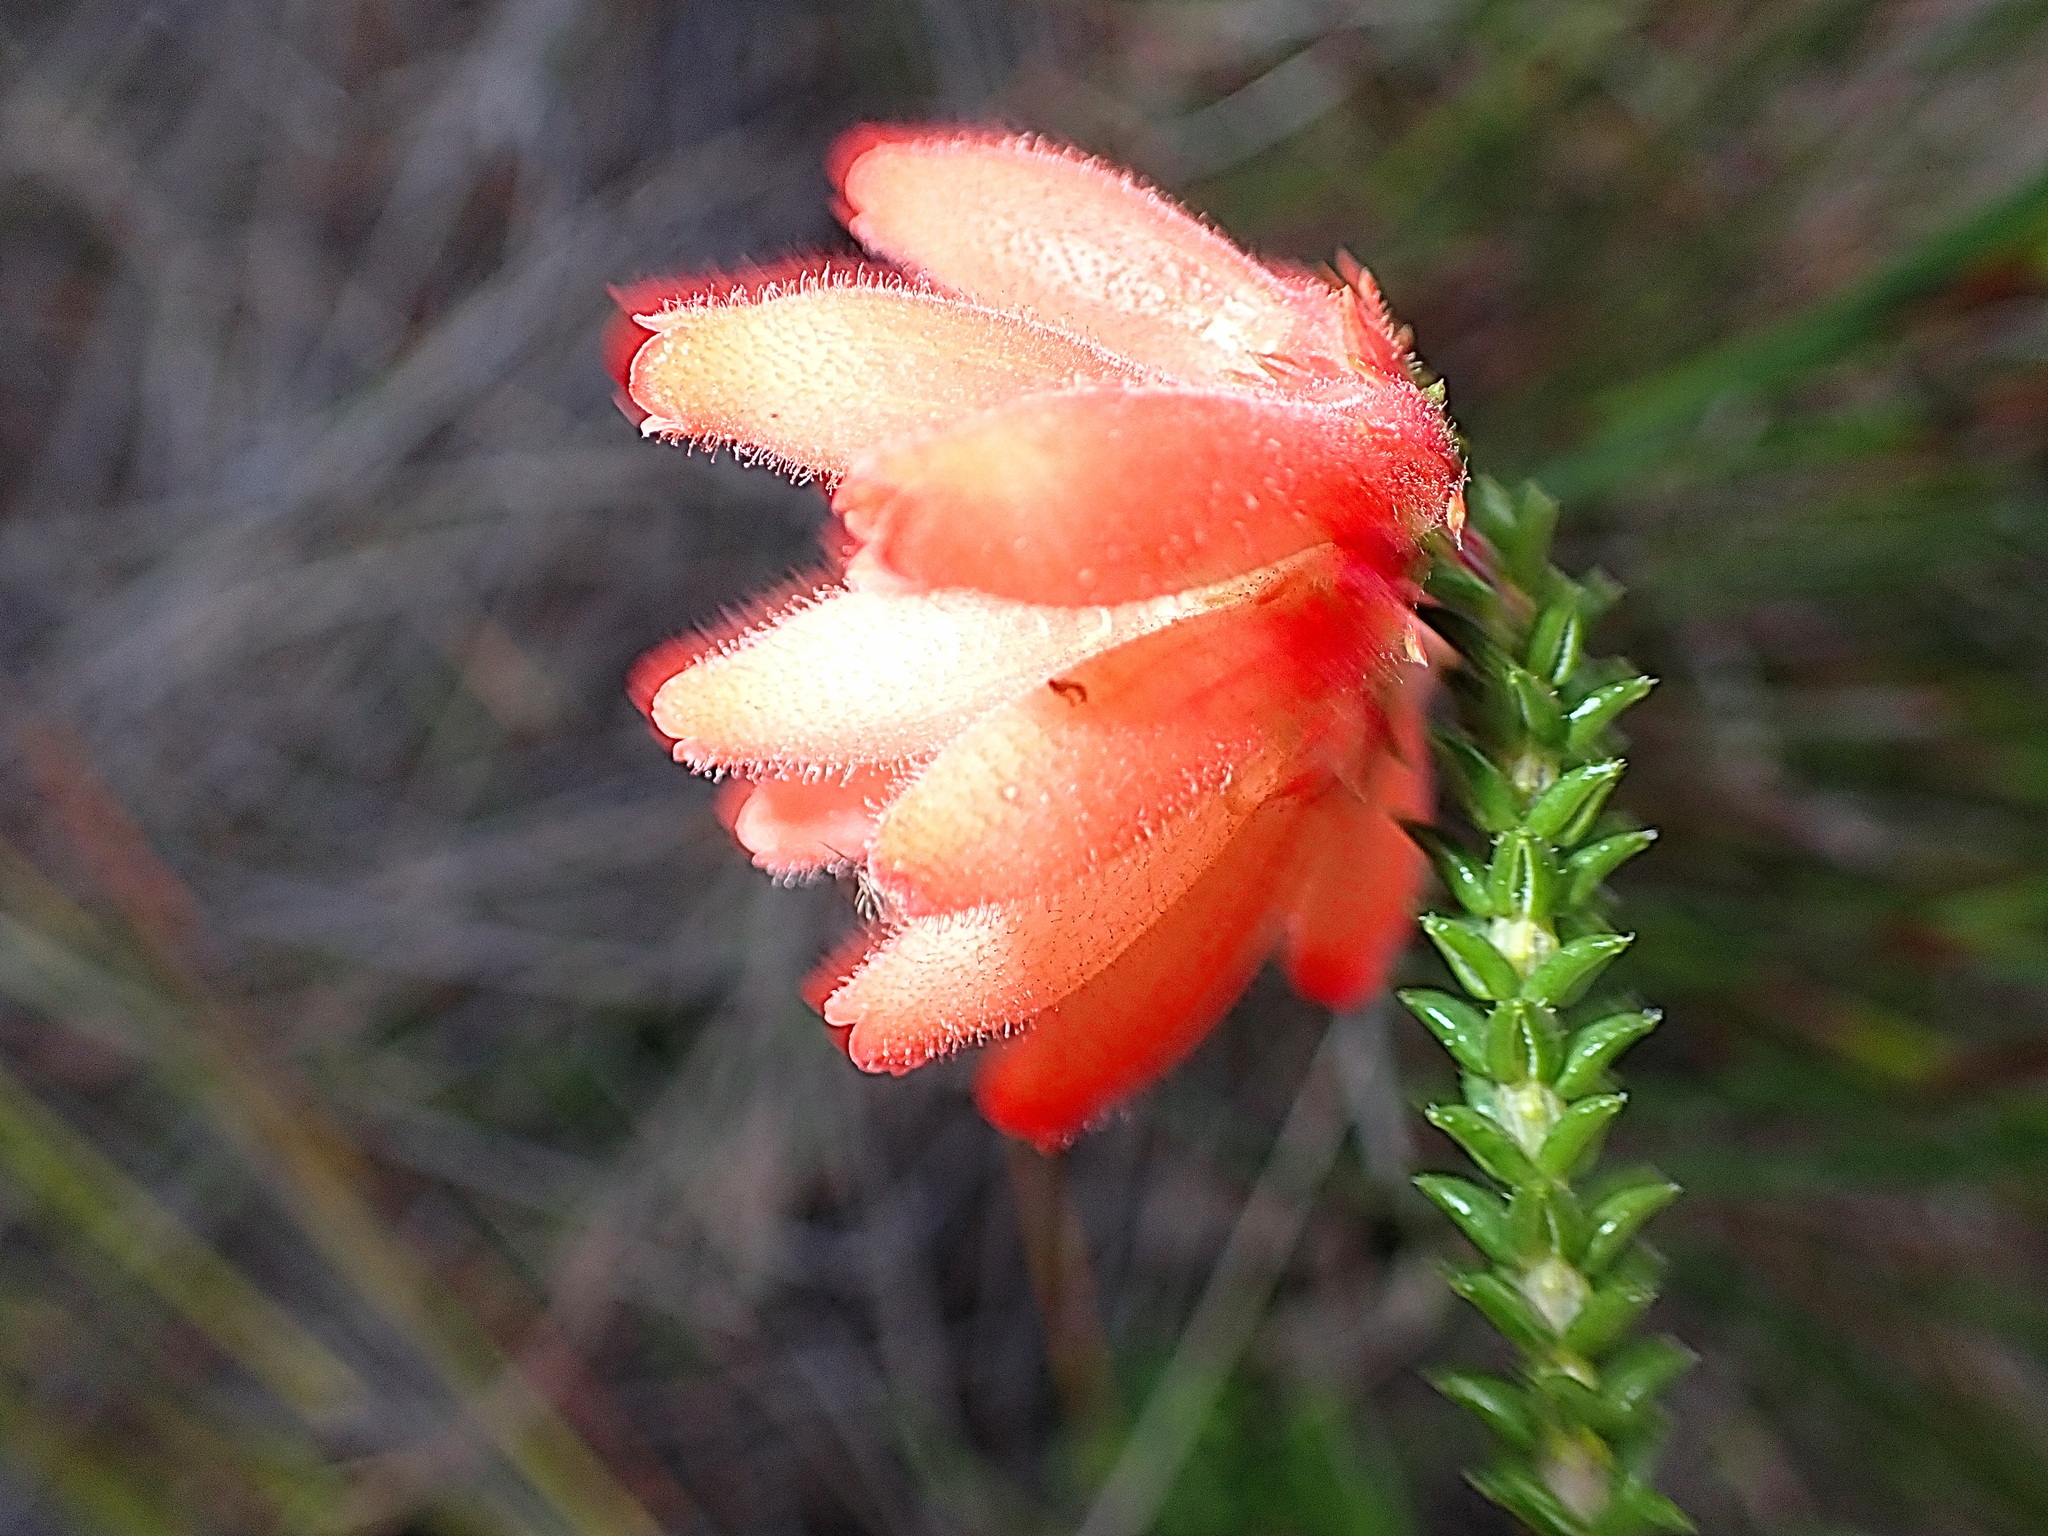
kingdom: Plantae
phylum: Tracheophyta
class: Magnoliopsida
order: Ericales
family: Ericaceae
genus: Erica
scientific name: Erica cerinthoides
